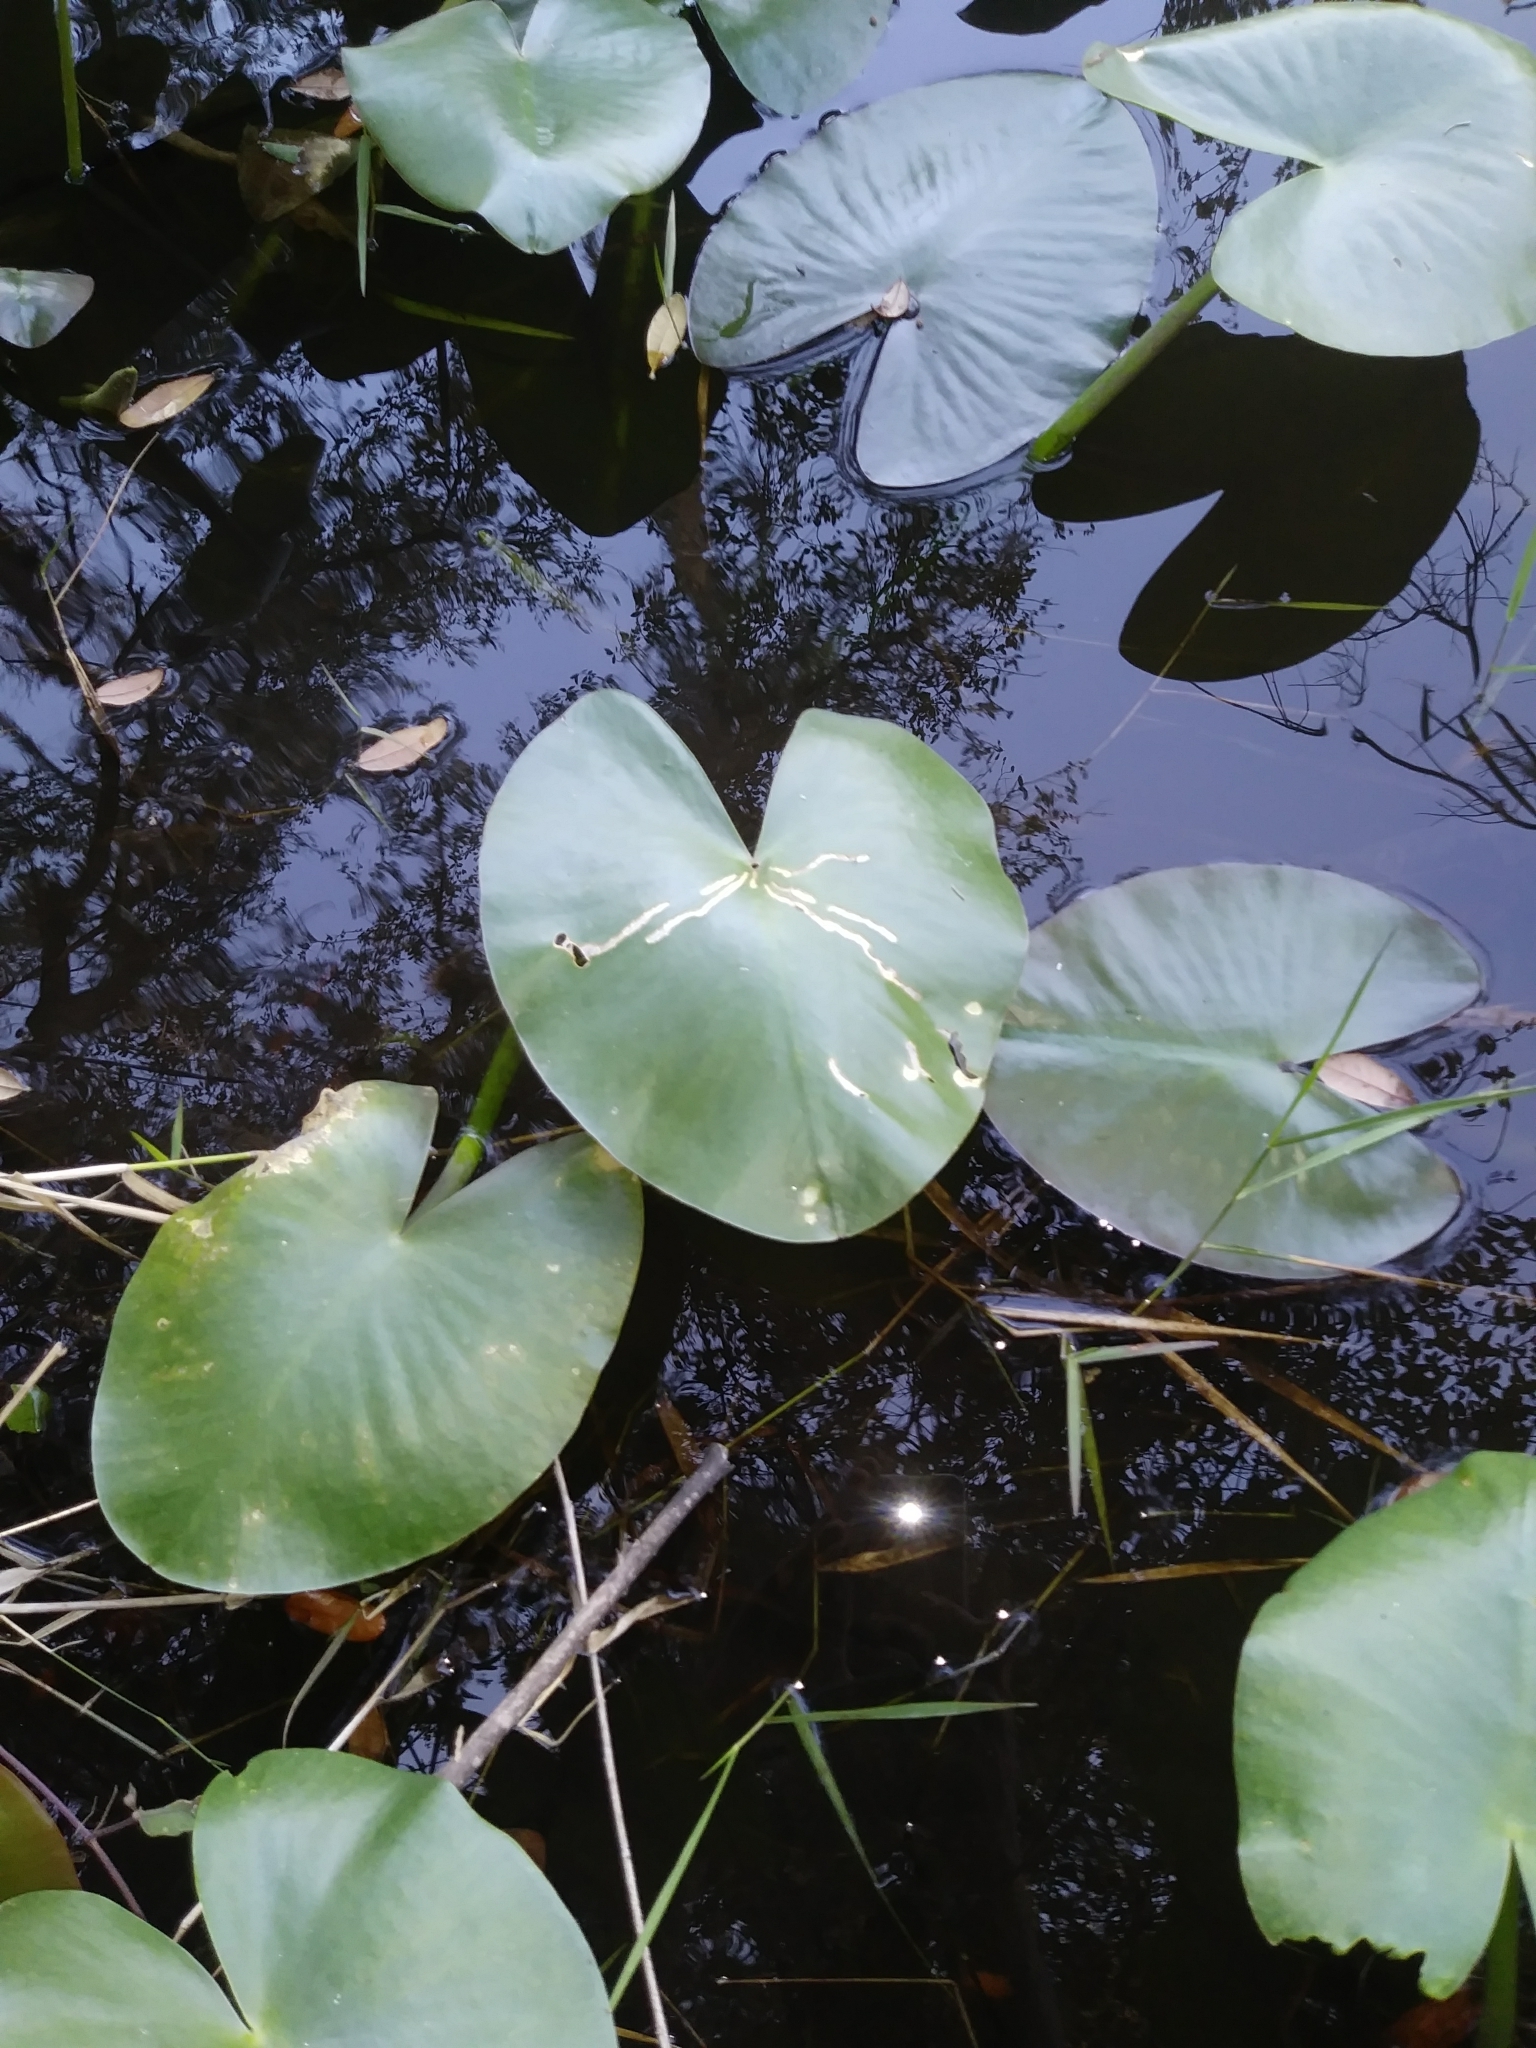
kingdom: Plantae
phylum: Tracheophyta
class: Magnoliopsida
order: Nymphaeales
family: Nymphaeaceae
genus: Nuphar
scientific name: Nuphar advena
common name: Spatter-dock
